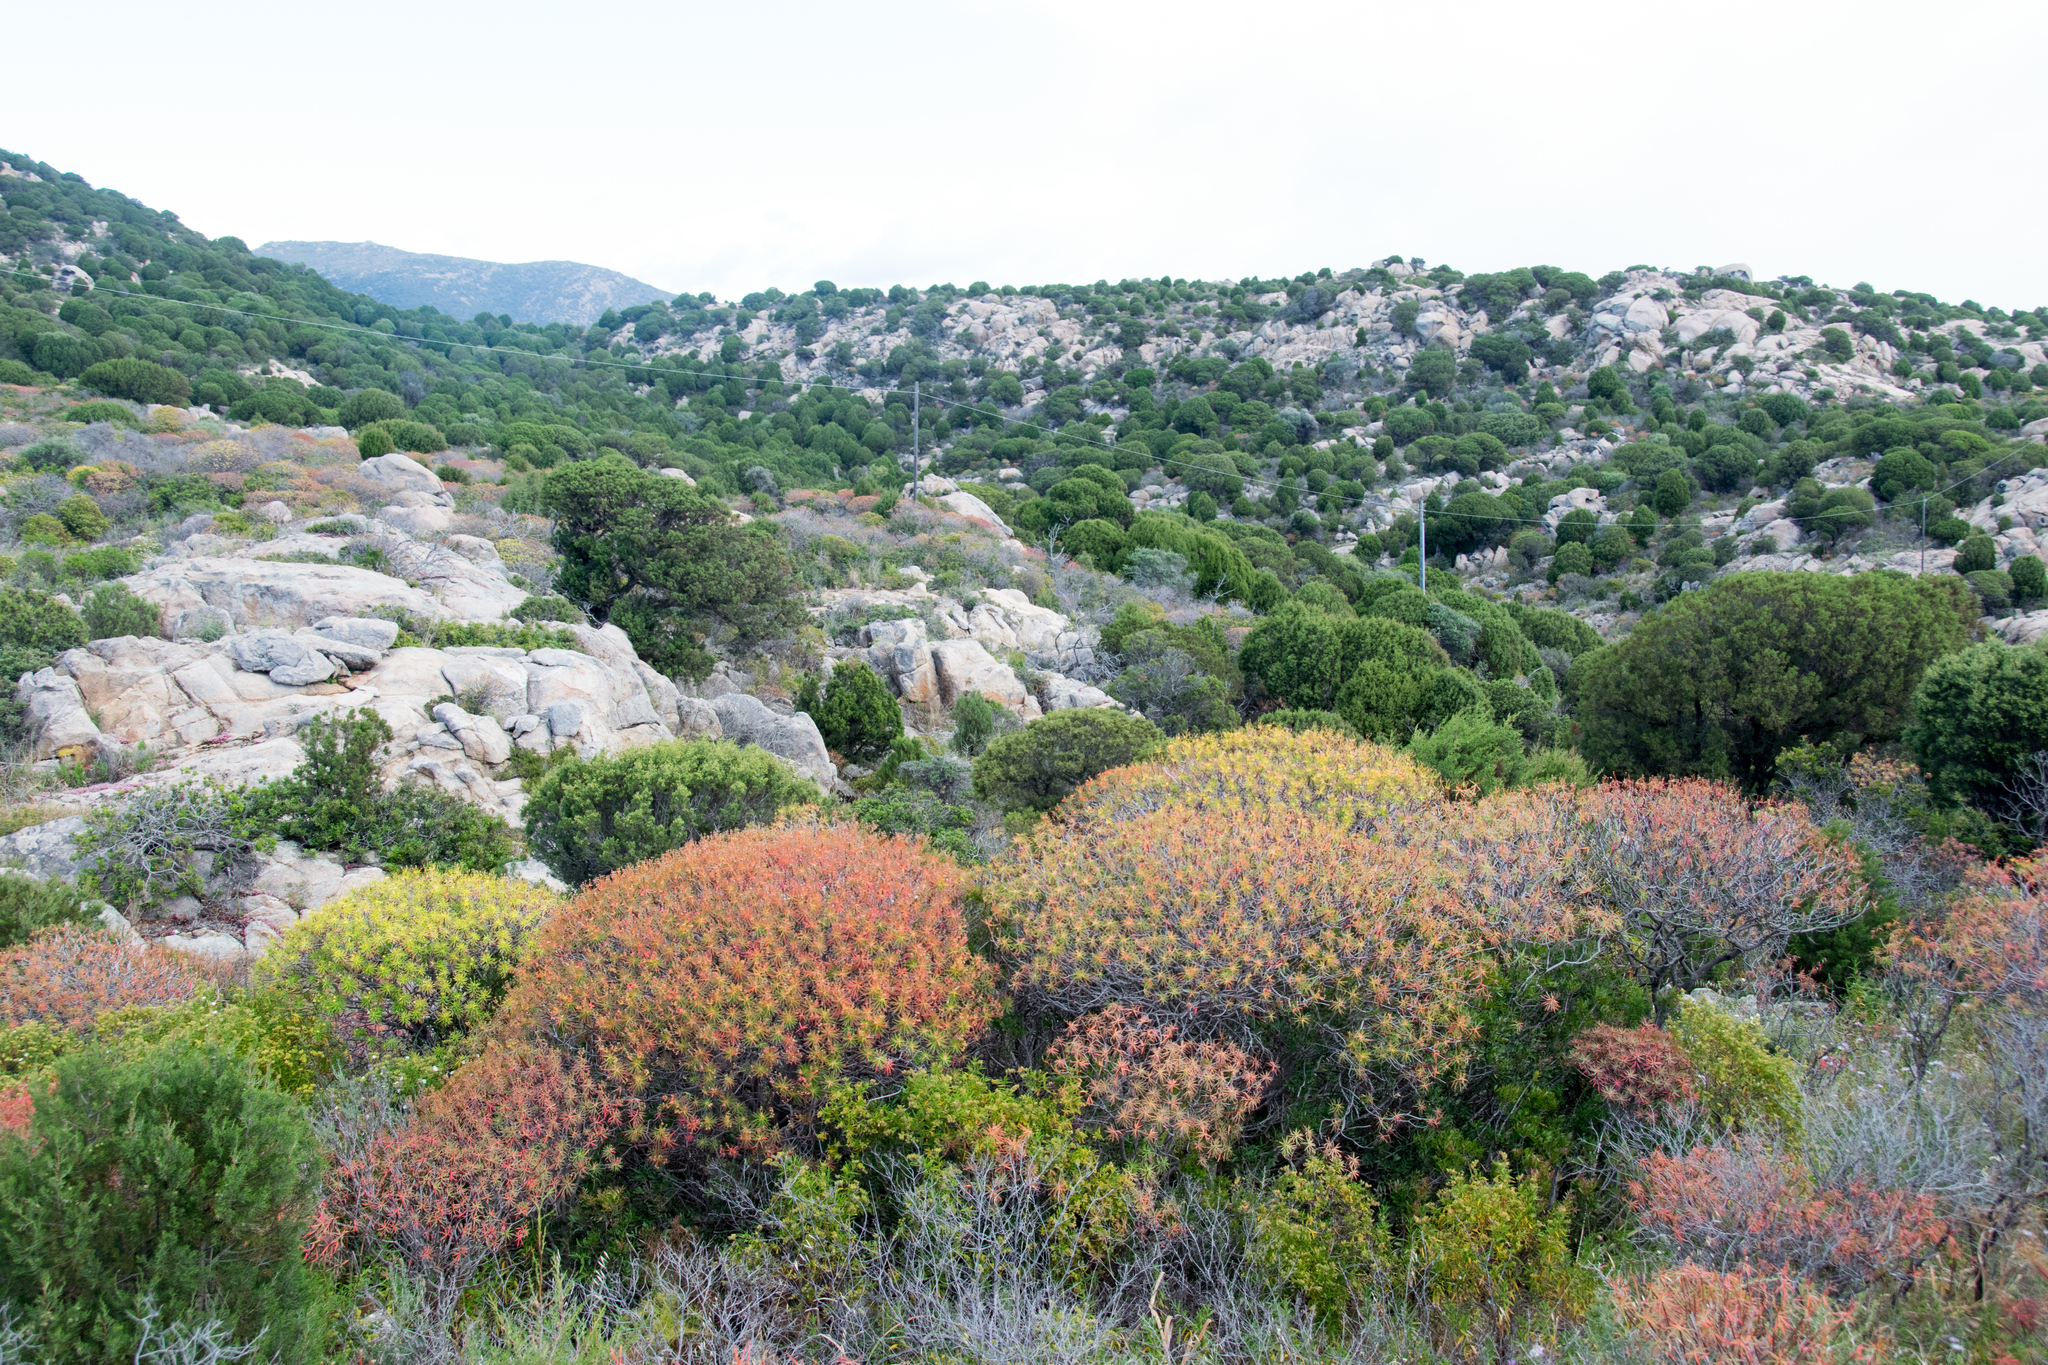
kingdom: Plantae
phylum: Tracheophyta
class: Magnoliopsida
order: Malpighiales
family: Euphorbiaceae
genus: Euphorbia
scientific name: Euphorbia dendroides
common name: Tree spurge
